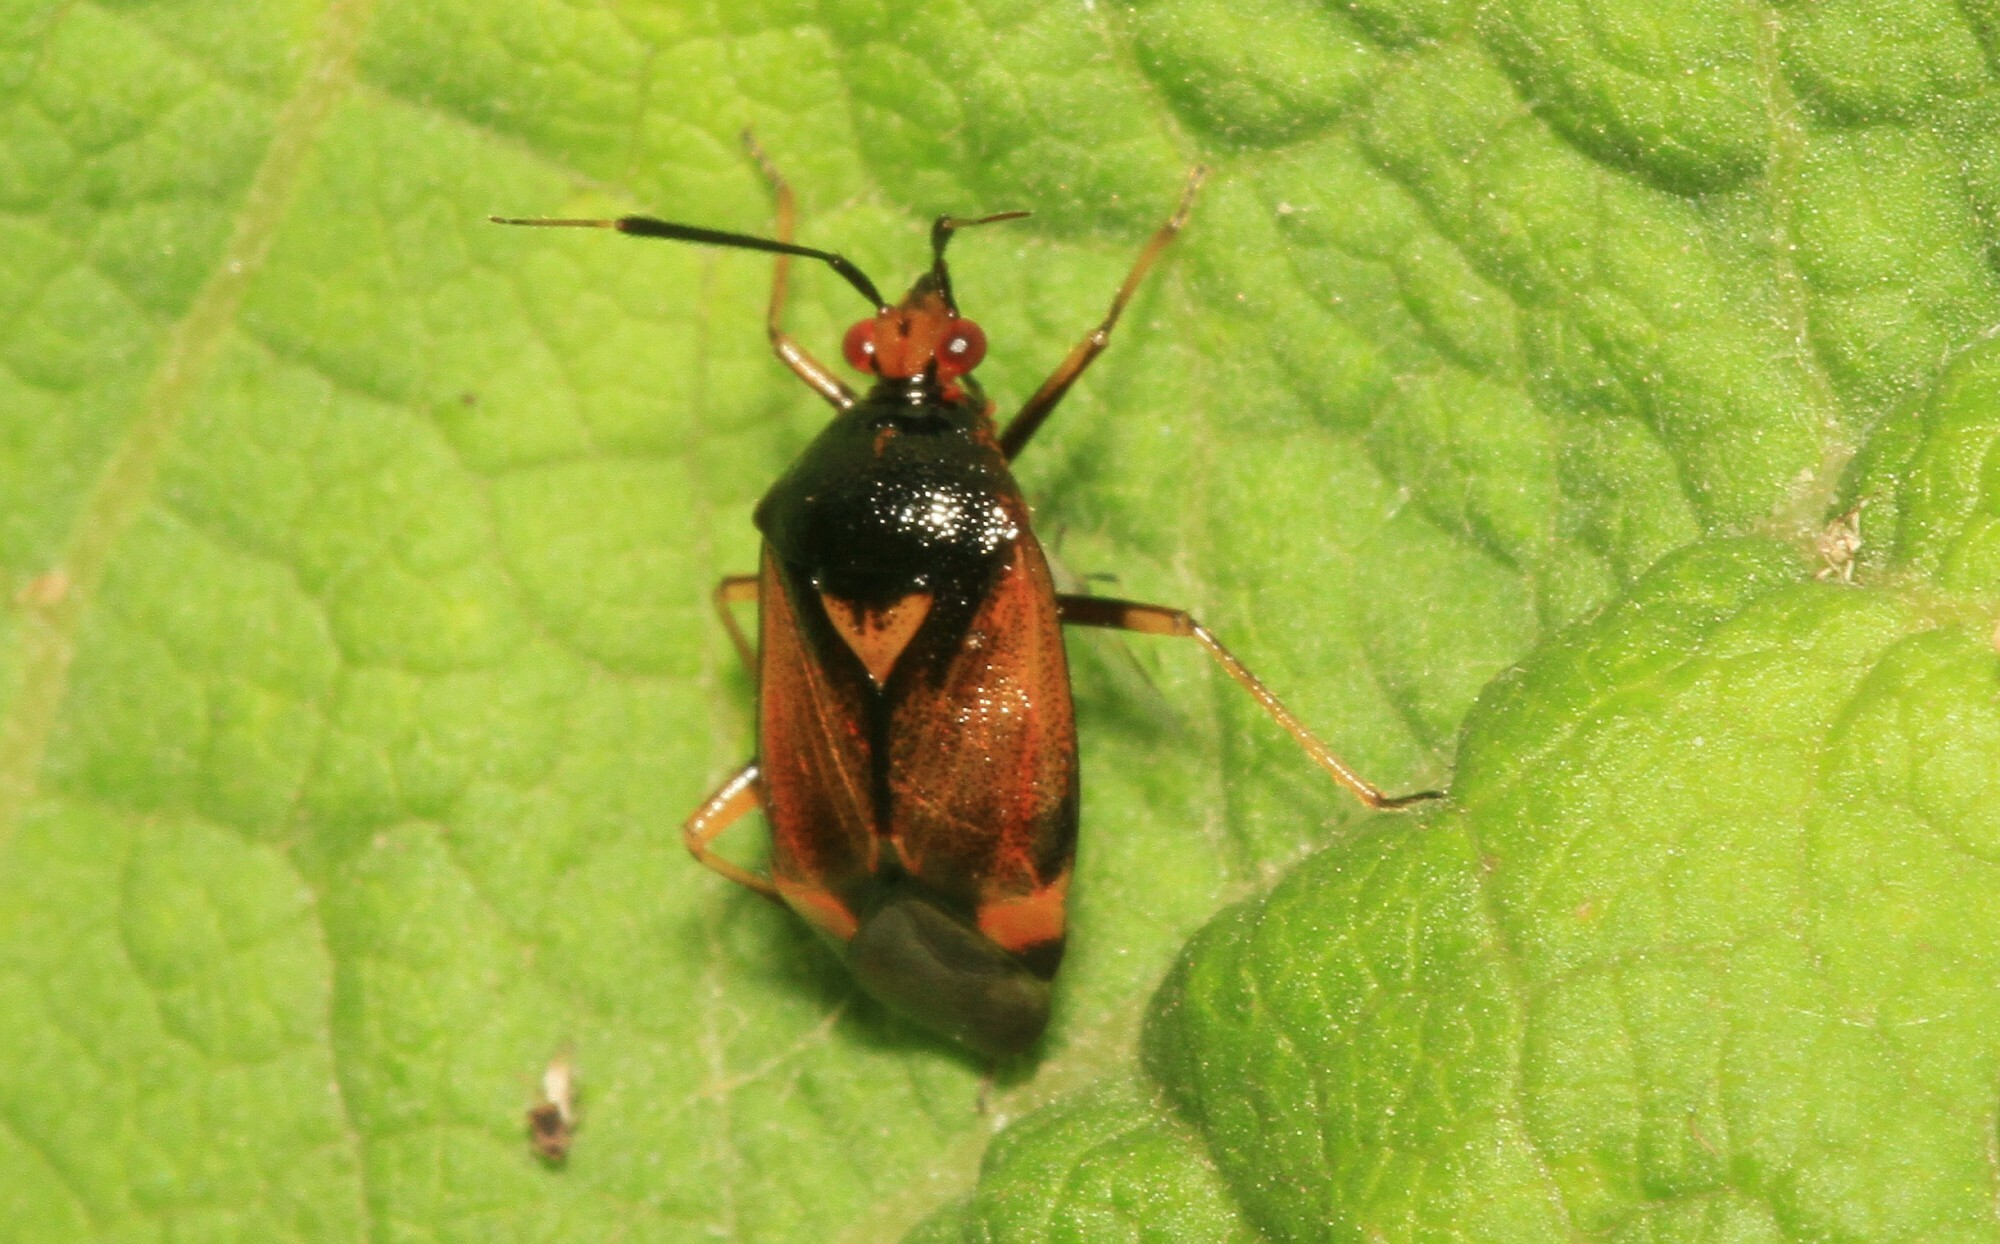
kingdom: Animalia
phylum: Arthropoda
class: Insecta
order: Hemiptera
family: Miridae
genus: Deraeocoris
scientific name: Deraeocoris ruber
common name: Plant bug
